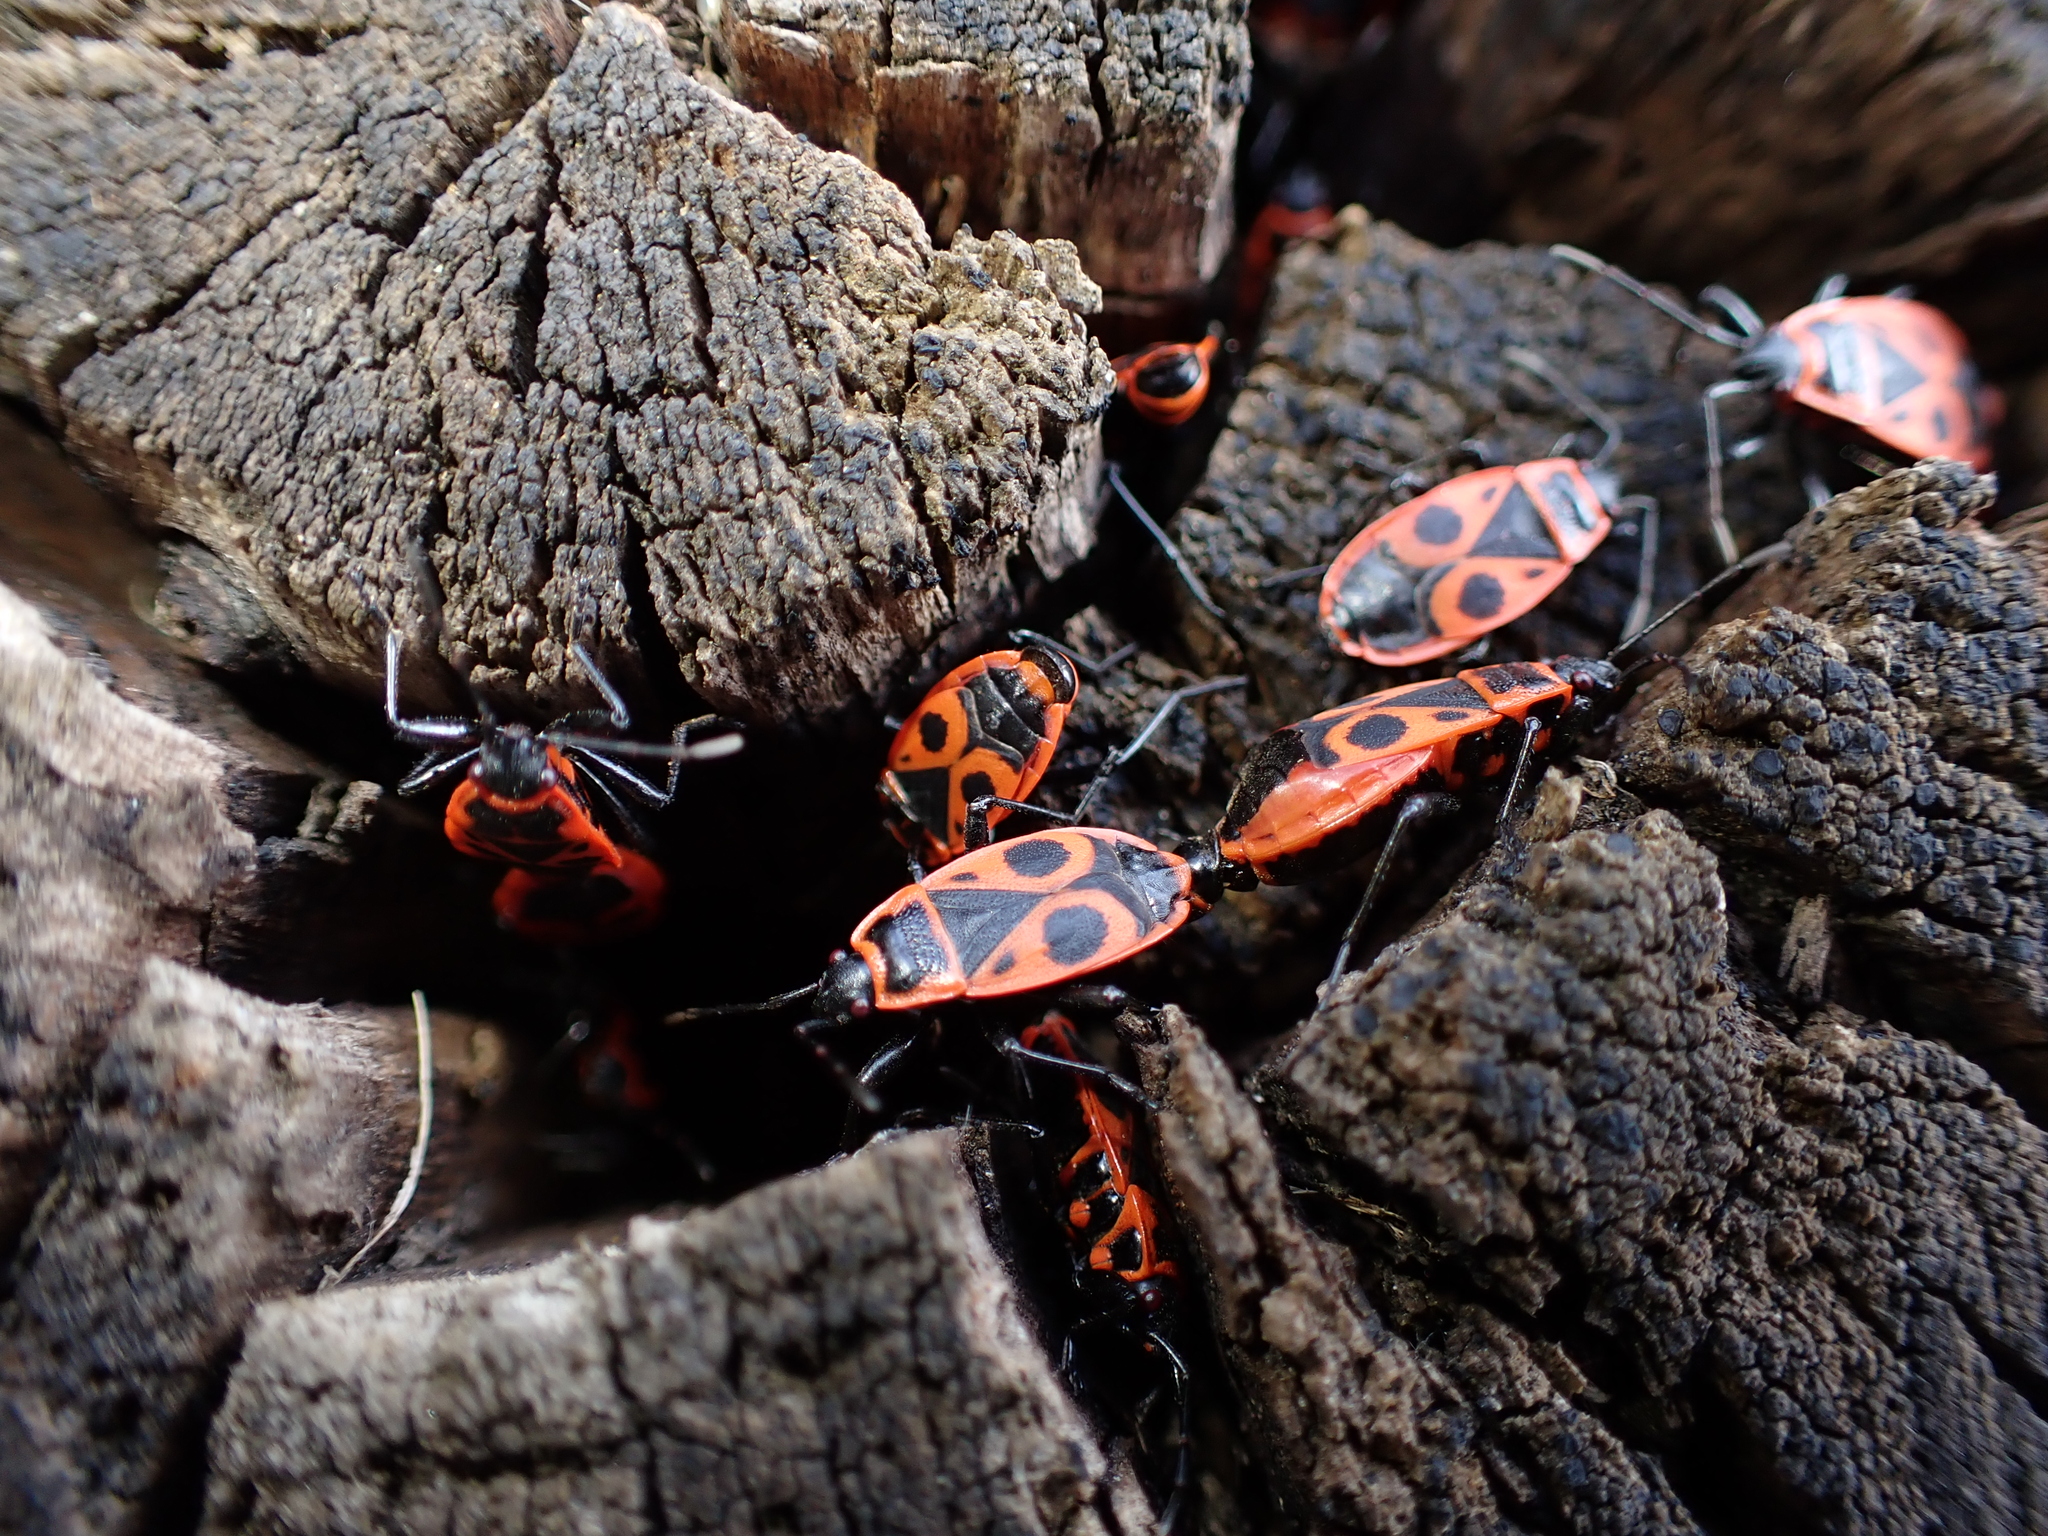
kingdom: Animalia
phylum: Arthropoda
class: Insecta
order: Hemiptera
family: Pyrrhocoridae
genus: Pyrrhocoris
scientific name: Pyrrhocoris apterus
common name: Firebug
